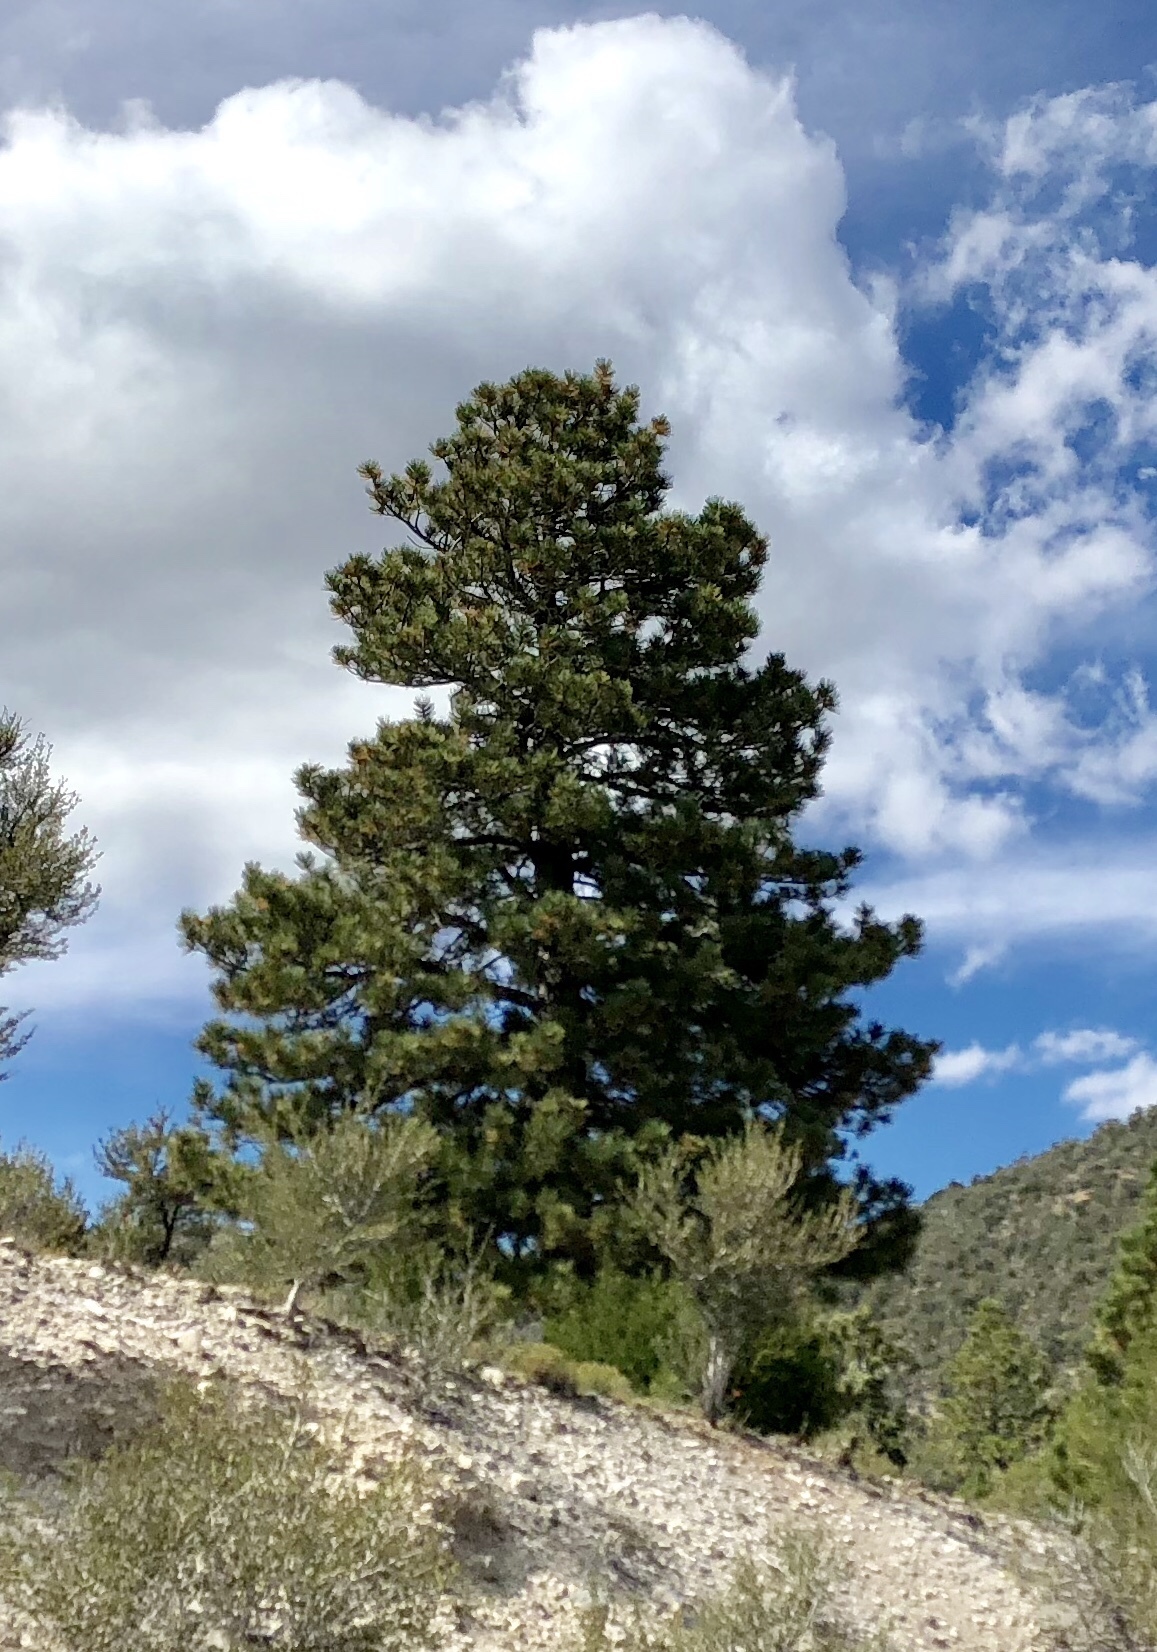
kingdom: Plantae
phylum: Tracheophyta
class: Pinopsida
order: Pinales
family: Pinaceae
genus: Pinus
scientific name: Pinus ponderosa
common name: Western yellow-pine
